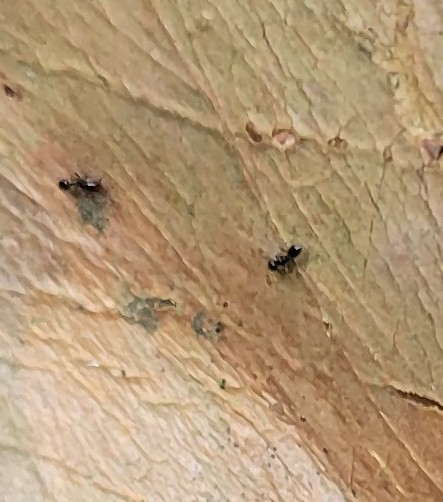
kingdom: Animalia
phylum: Arthropoda
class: Insecta
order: Hymenoptera
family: Formicidae
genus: Monomorium
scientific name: Monomorium minimum
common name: Little black ant
